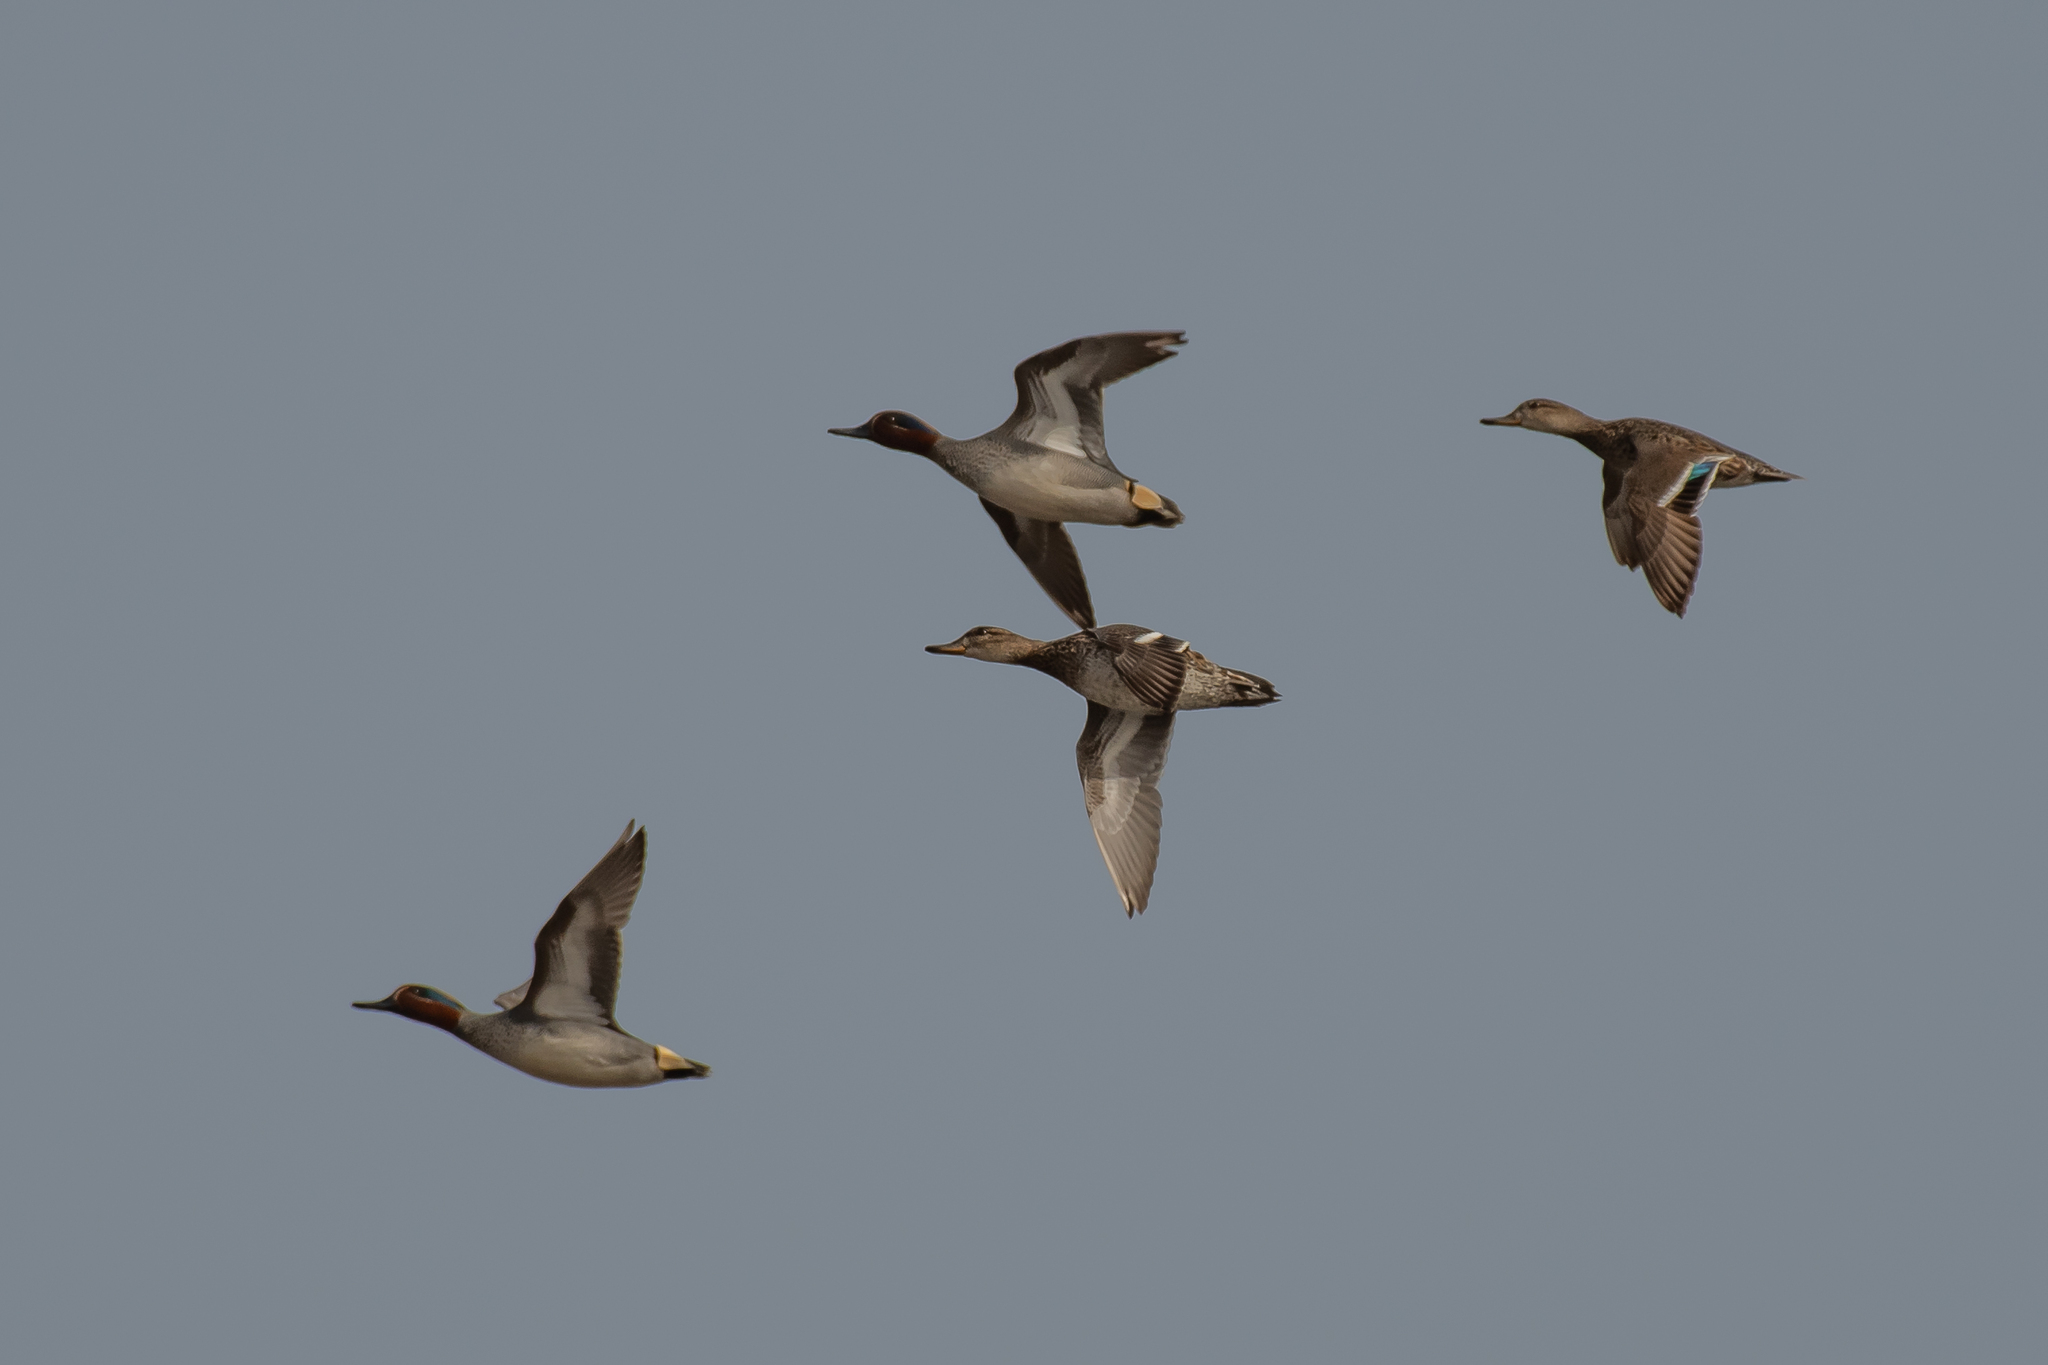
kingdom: Animalia
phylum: Chordata
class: Aves
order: Anseriformes
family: Anatidae
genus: Anas
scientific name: Anas crecca
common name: Eurasian teal
